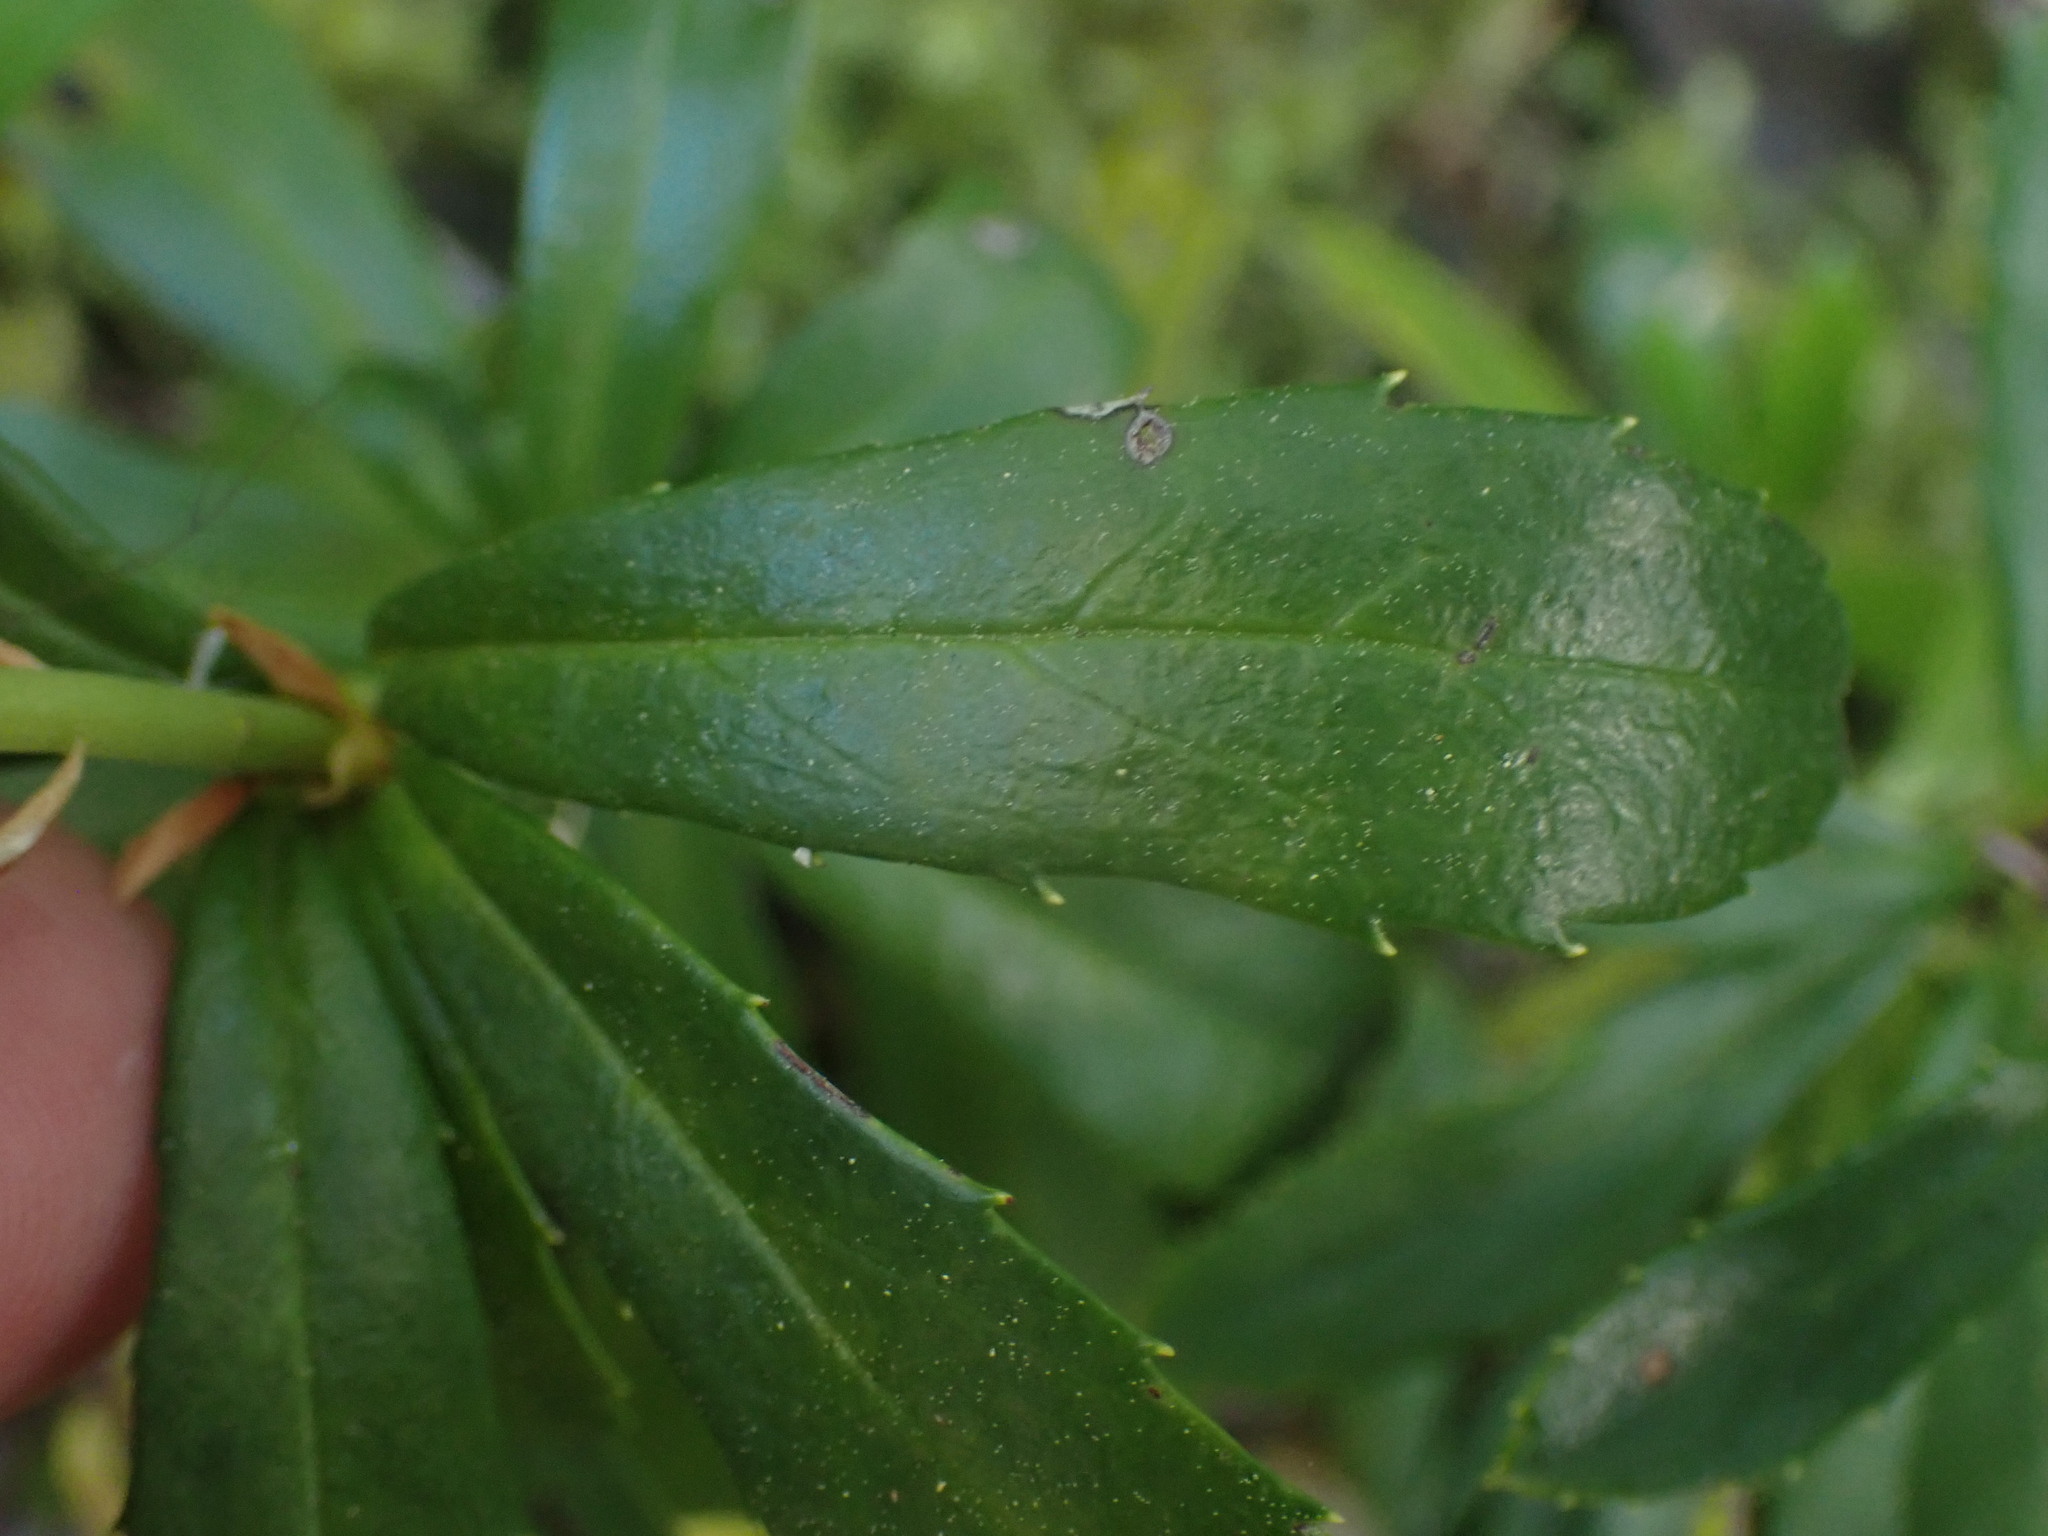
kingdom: Plantae
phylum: Tracheophyta
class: Magnoliopsida
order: Ericales
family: Ericaceae
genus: Chimaphila
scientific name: Chimaphila umbellata
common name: Pipsissewa
